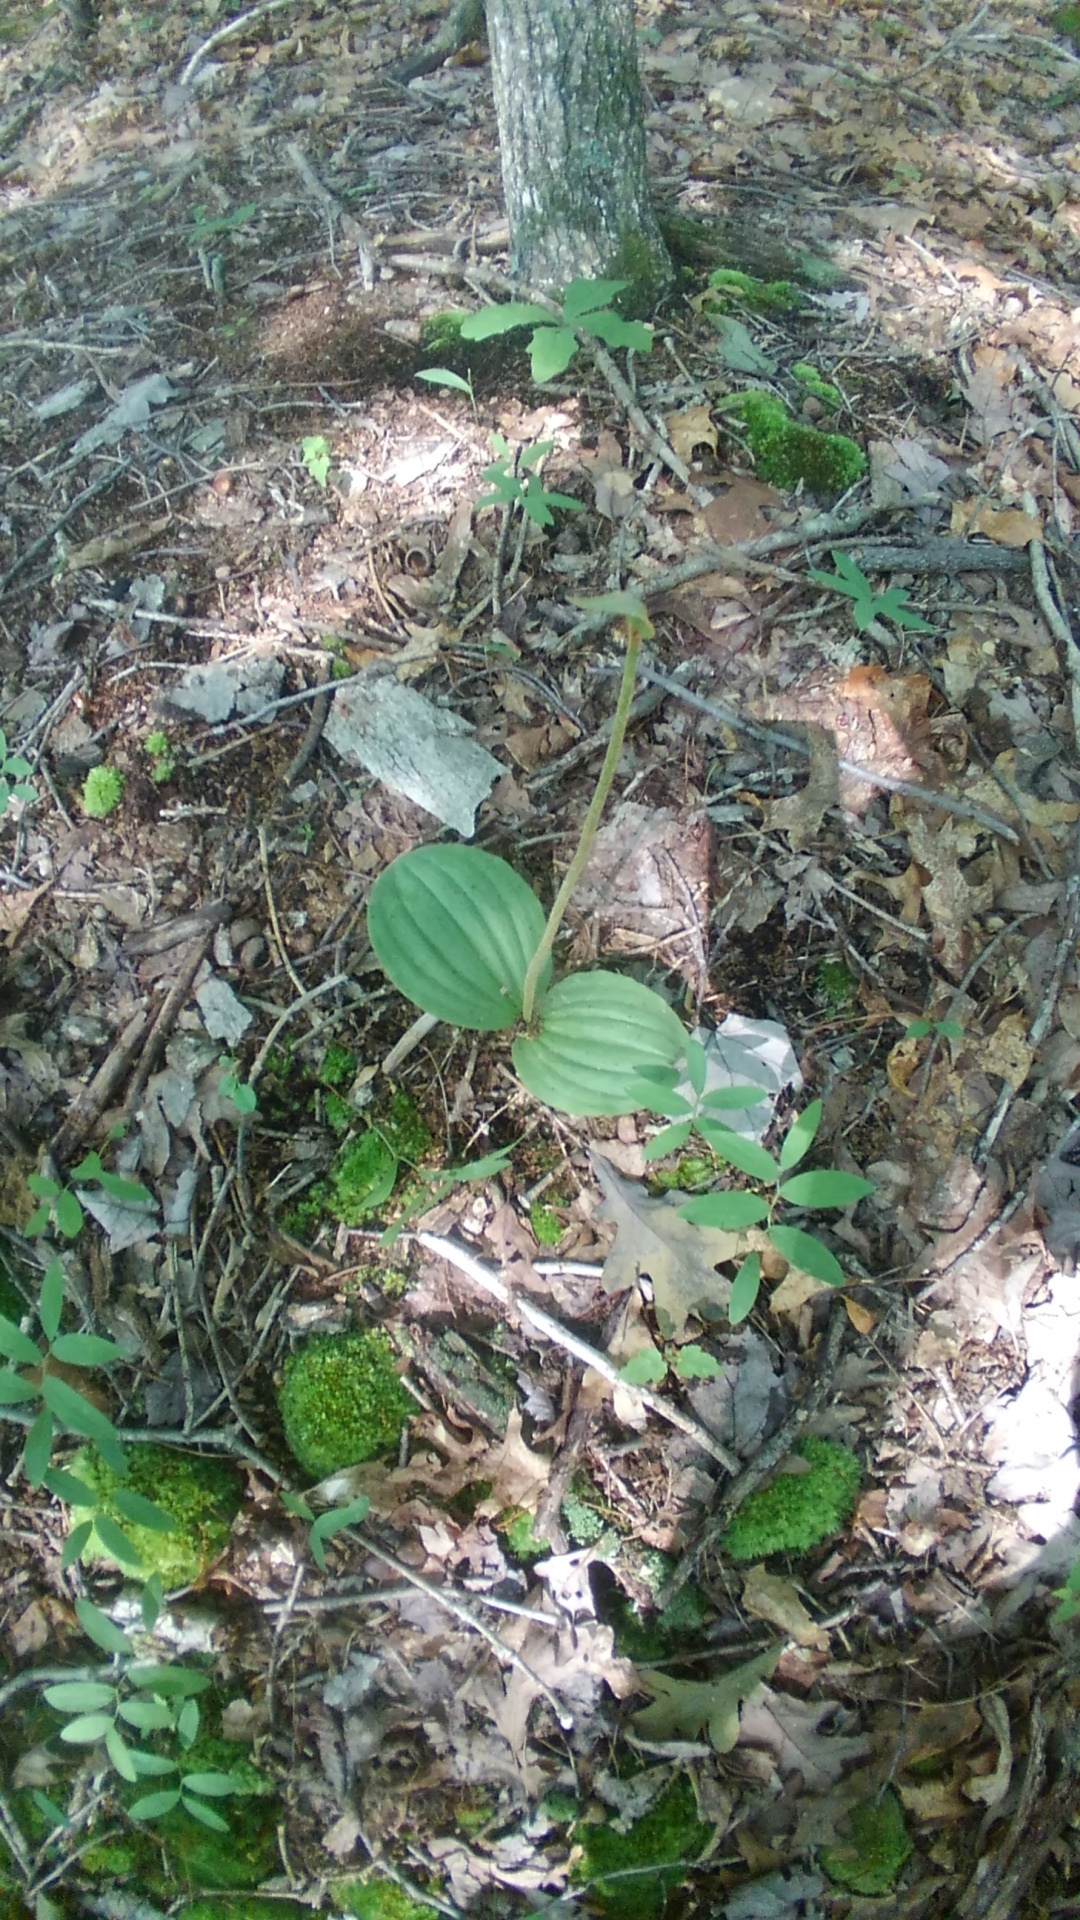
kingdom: Plantae
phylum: Tracheophyta
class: Liliopsida
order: Asparagales
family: Orchidaceae
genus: Cypripedium
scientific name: Cypripedium acaule
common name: Pink lady's-slipper
